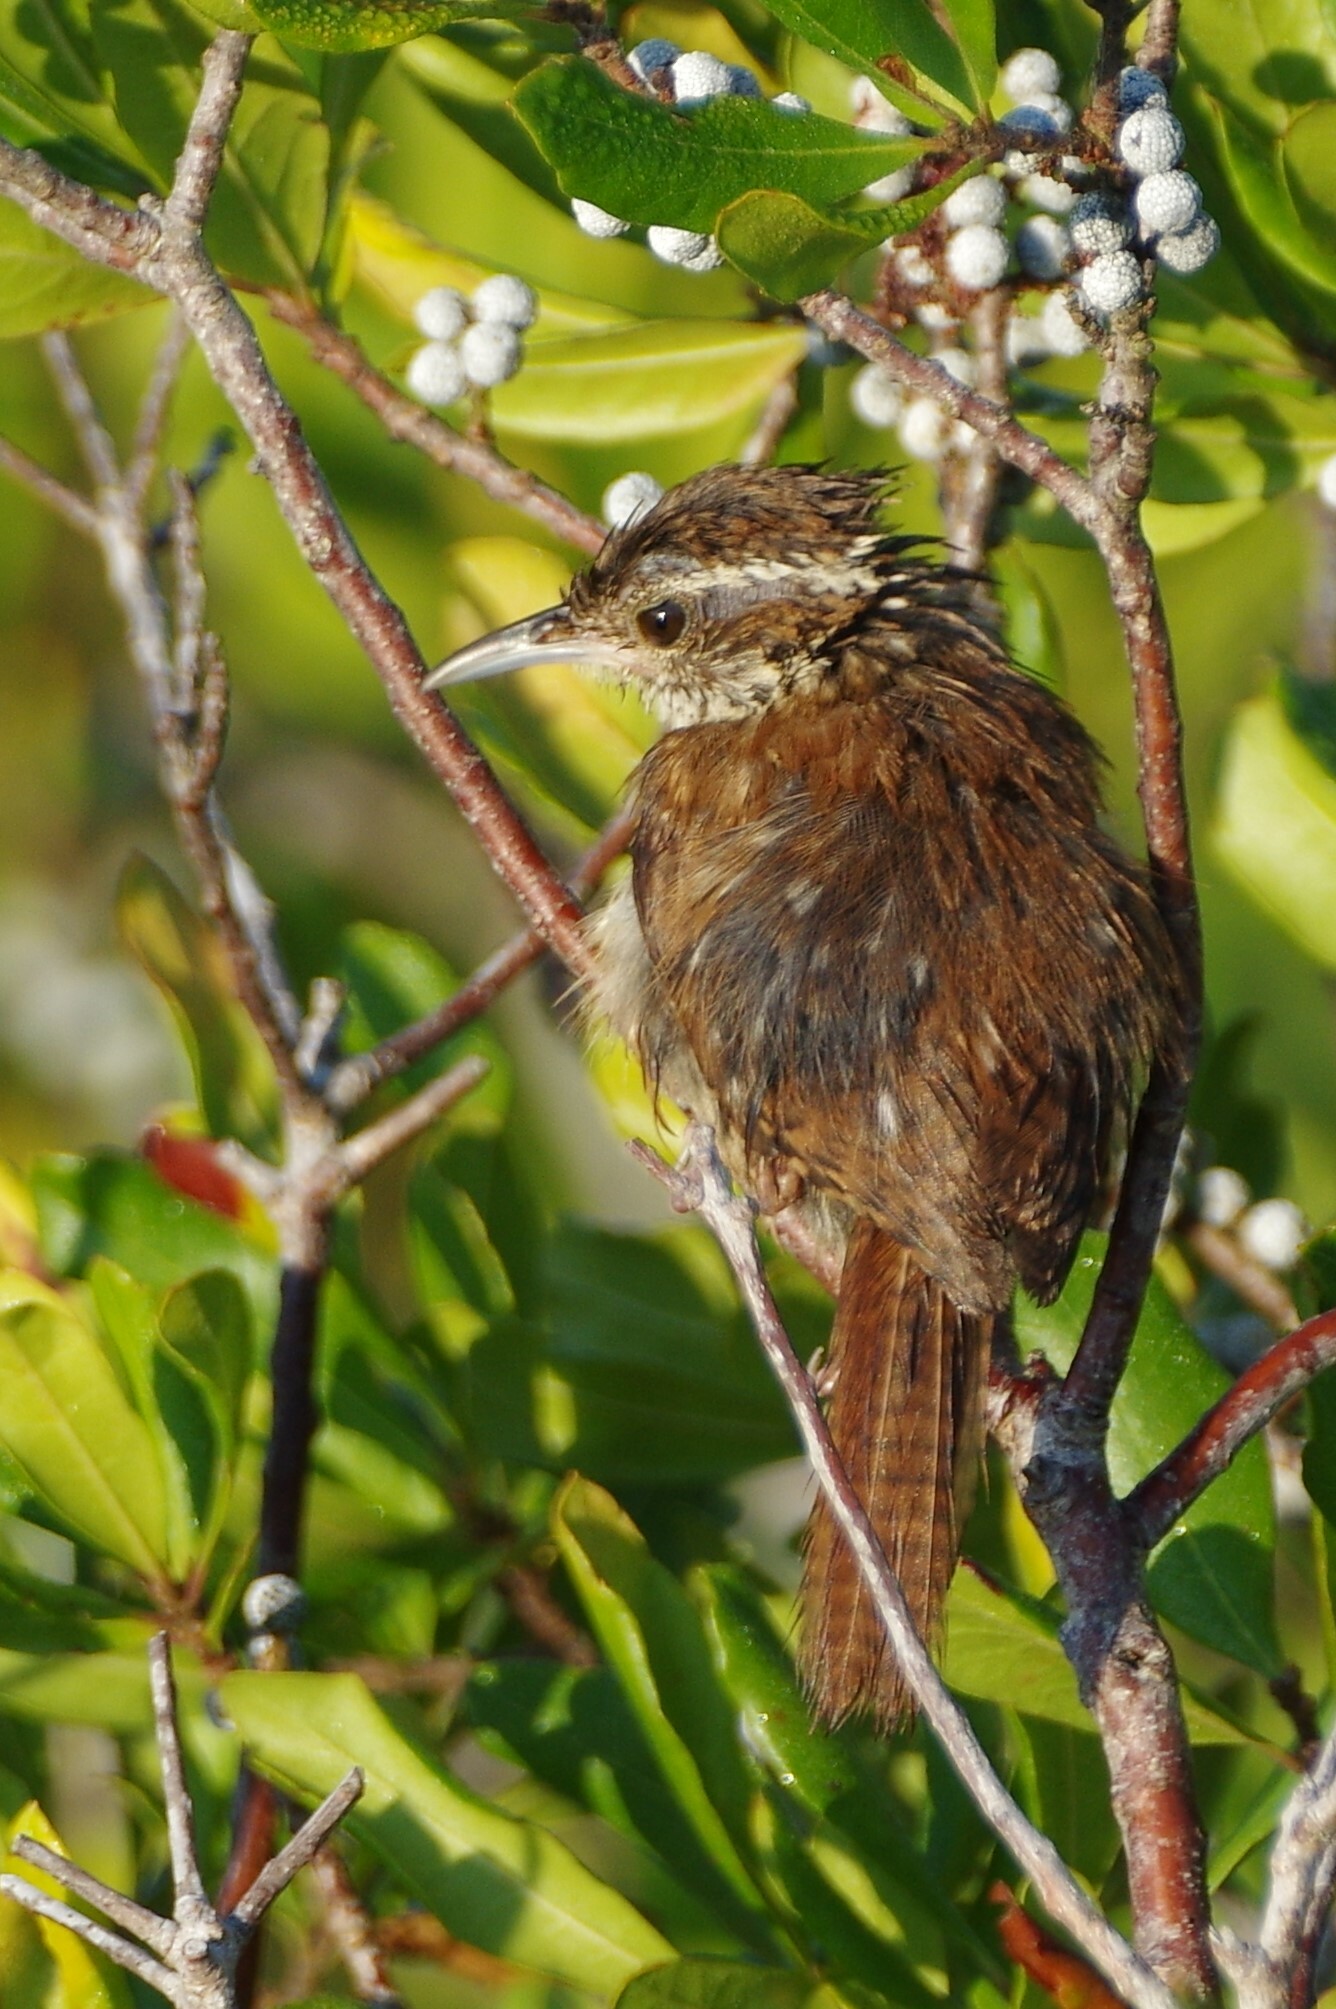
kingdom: Animalia
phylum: Chordata
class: Aves
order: Passeriformes
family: Troglodytidae
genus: Thryothorus
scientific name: Thryothorus ludovicianus
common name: Carolina wren
